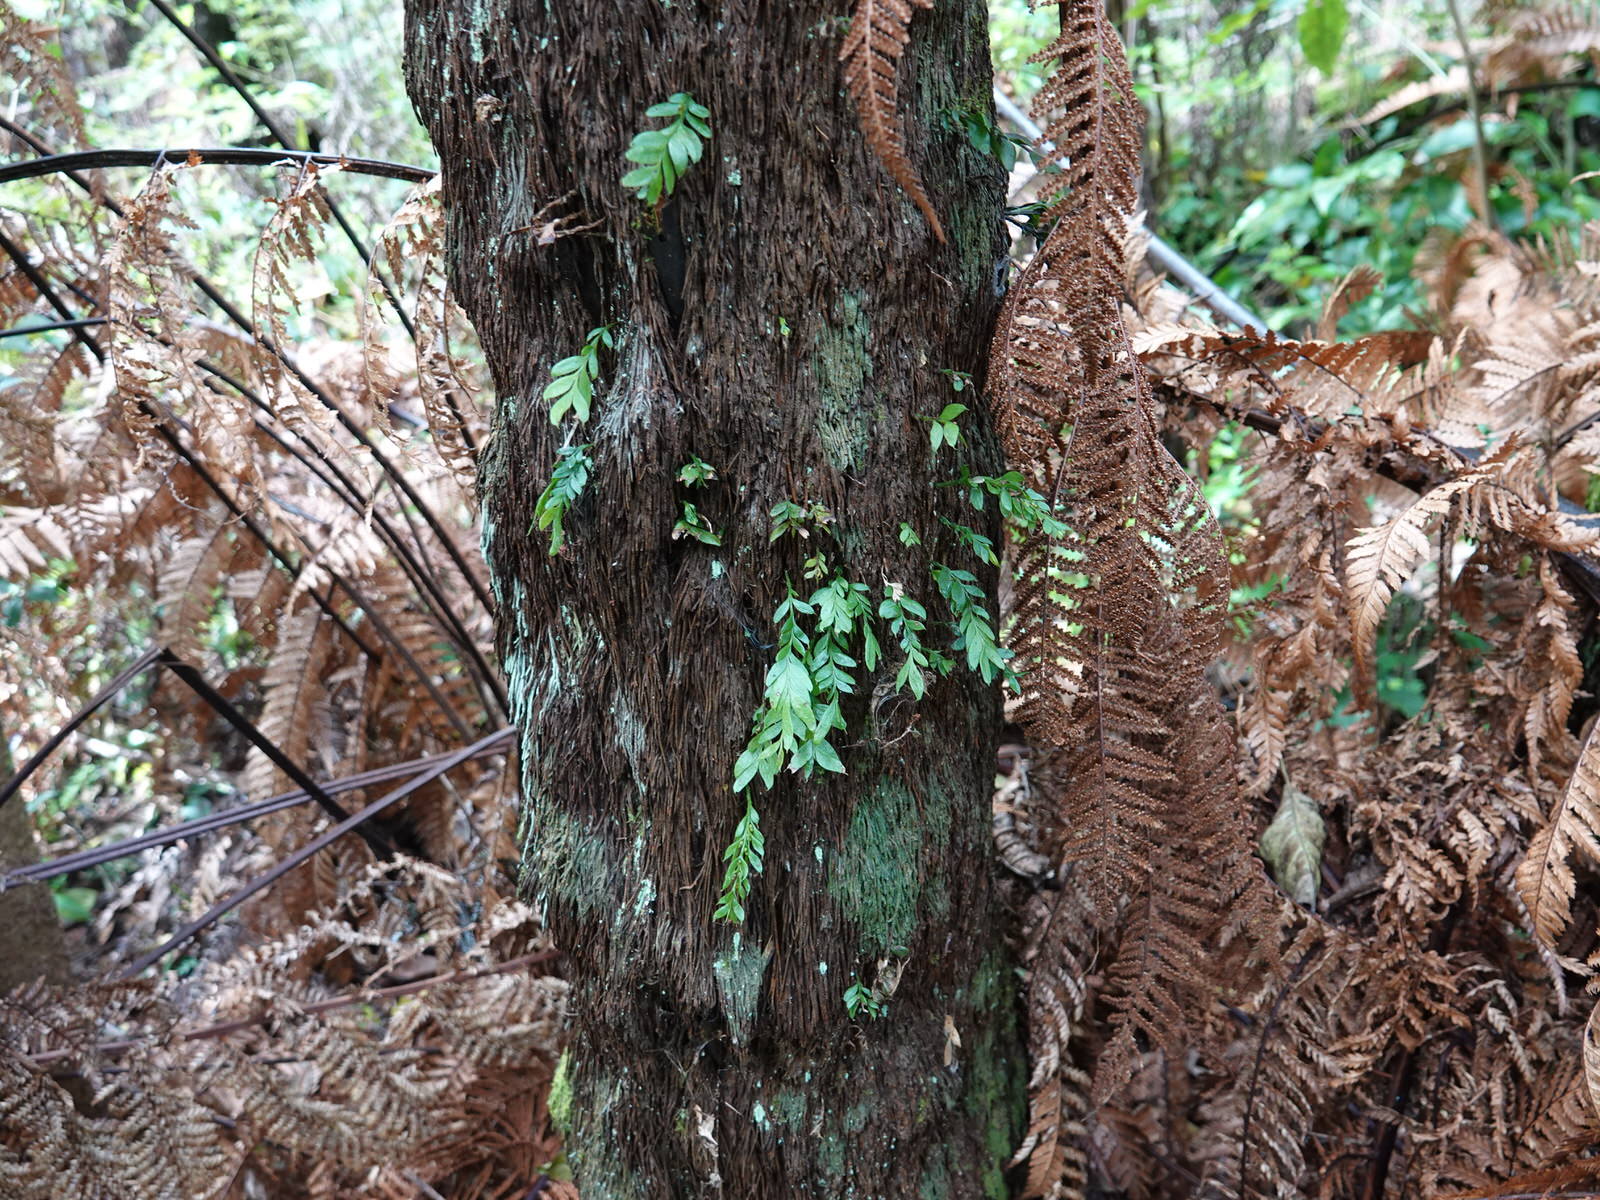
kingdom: Plantae
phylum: Tracheophyta
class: Polypodiopsida
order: Psilotales
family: Psilotaceae
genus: Tmesipteris
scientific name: Tmesipteris lanceolata
